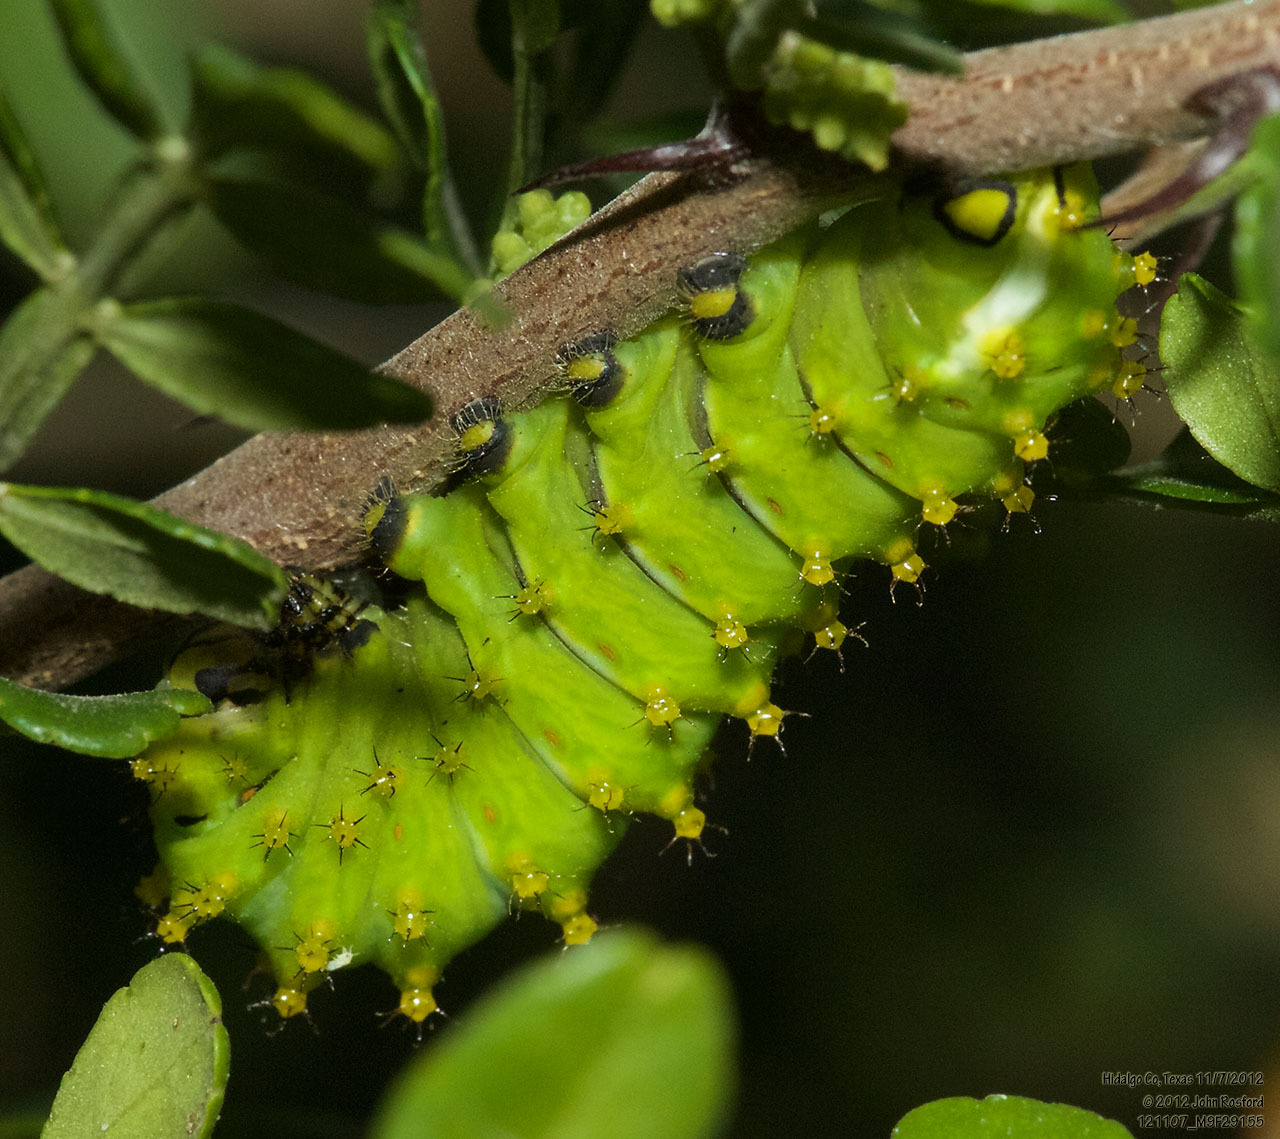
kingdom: Animalia
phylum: Arthropoda
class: Insecta
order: Lepidoptera
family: Saturniidae
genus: Rothschildia
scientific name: Rothschildia lebeau
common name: Lebeau's rothschildia
